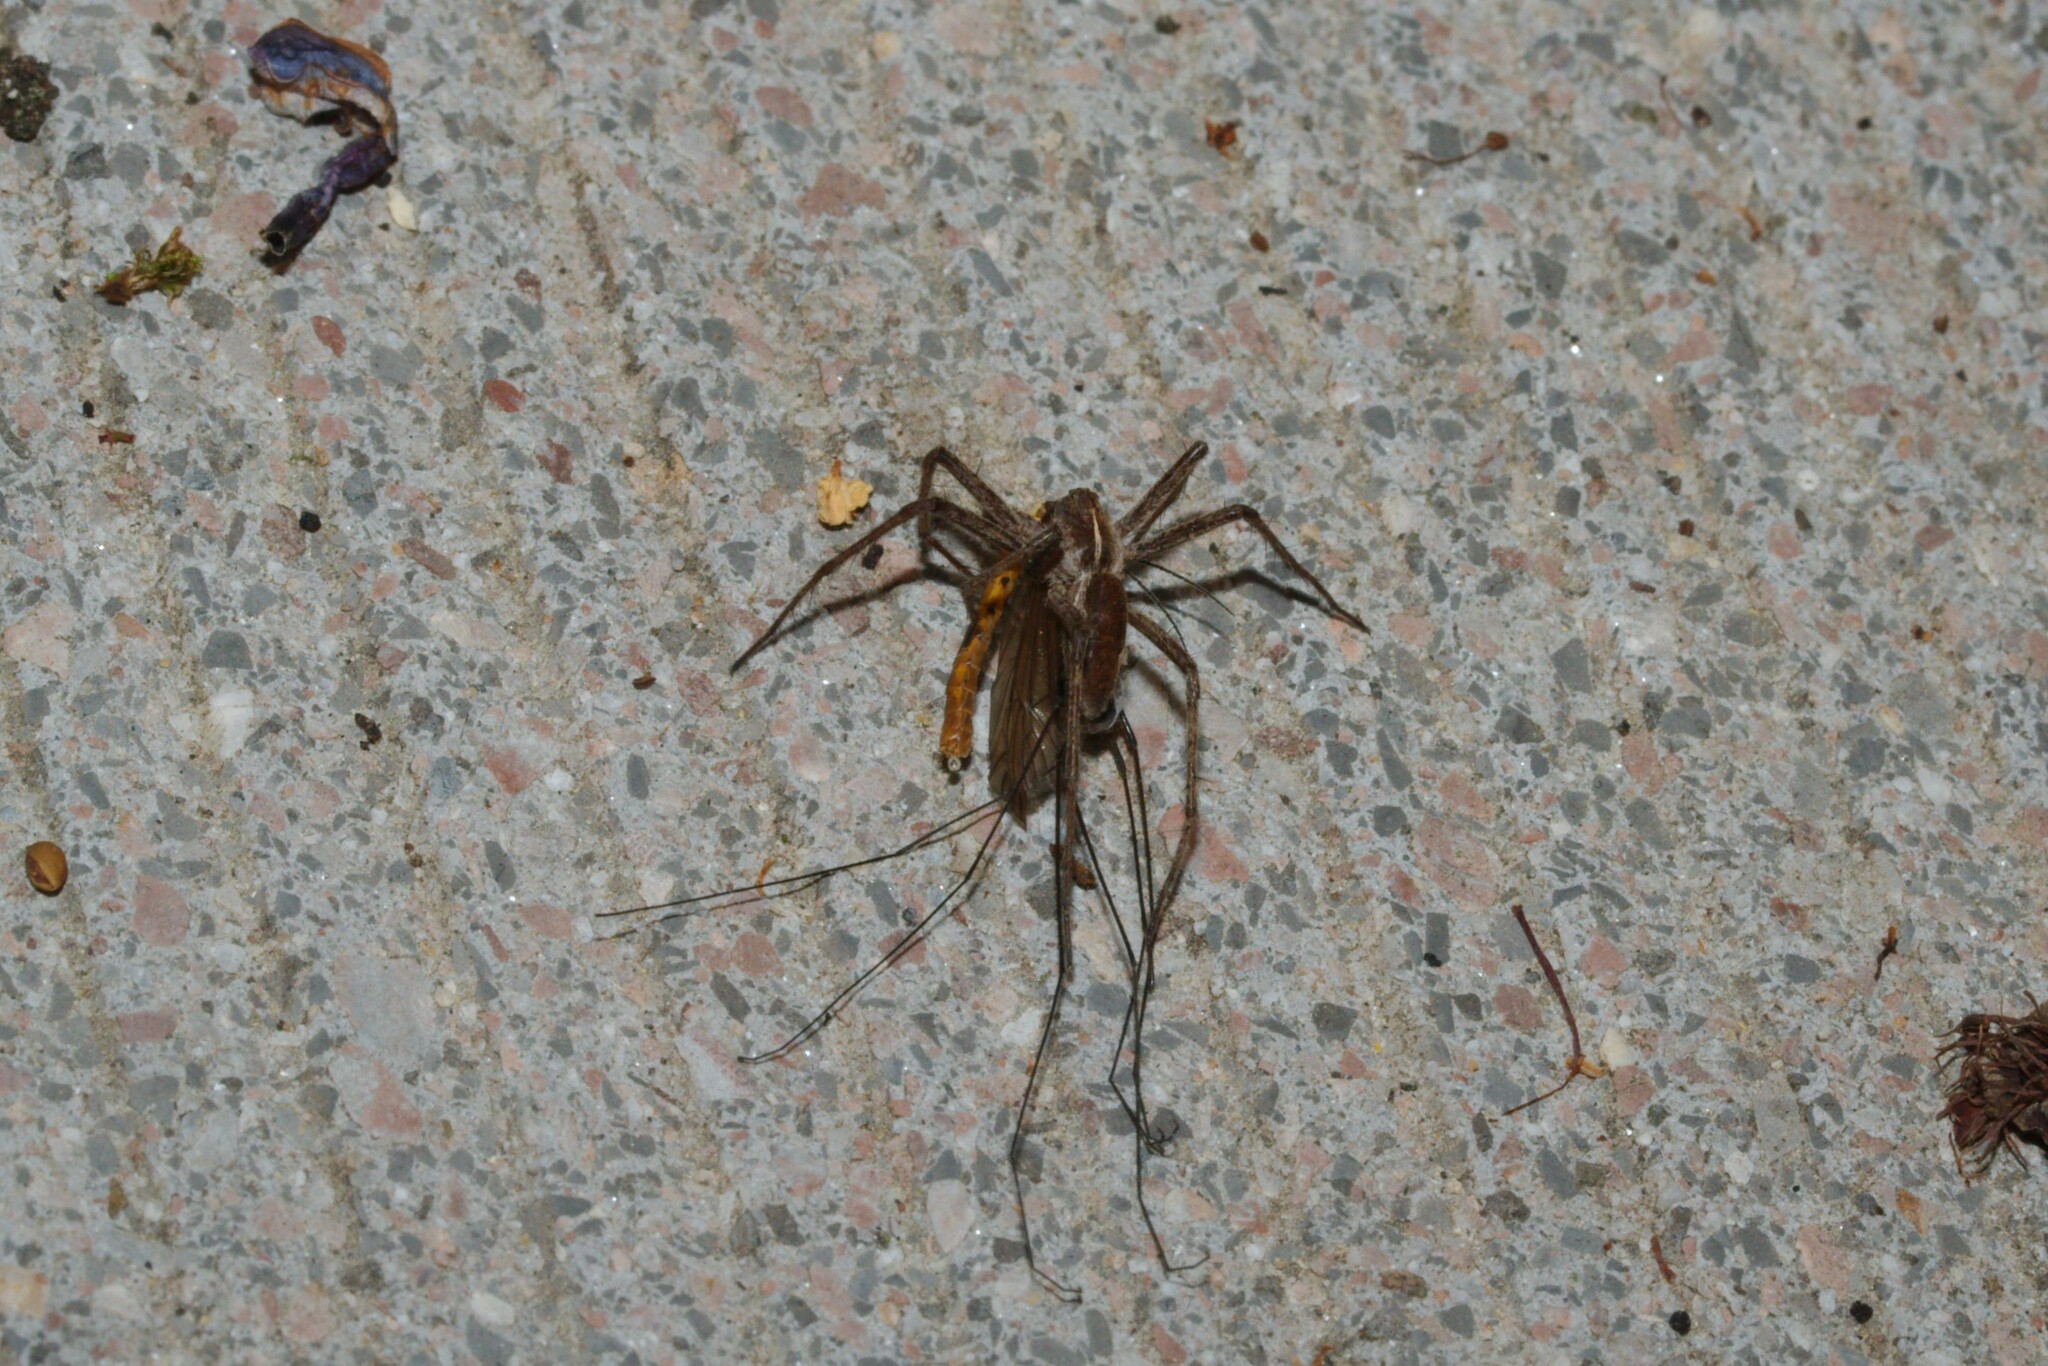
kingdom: Animalia
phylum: Arthropoda
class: Arachnida
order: Araneae
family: Pisauridae
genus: Pisaura
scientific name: Pisaura mirabilis
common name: Tent spider
